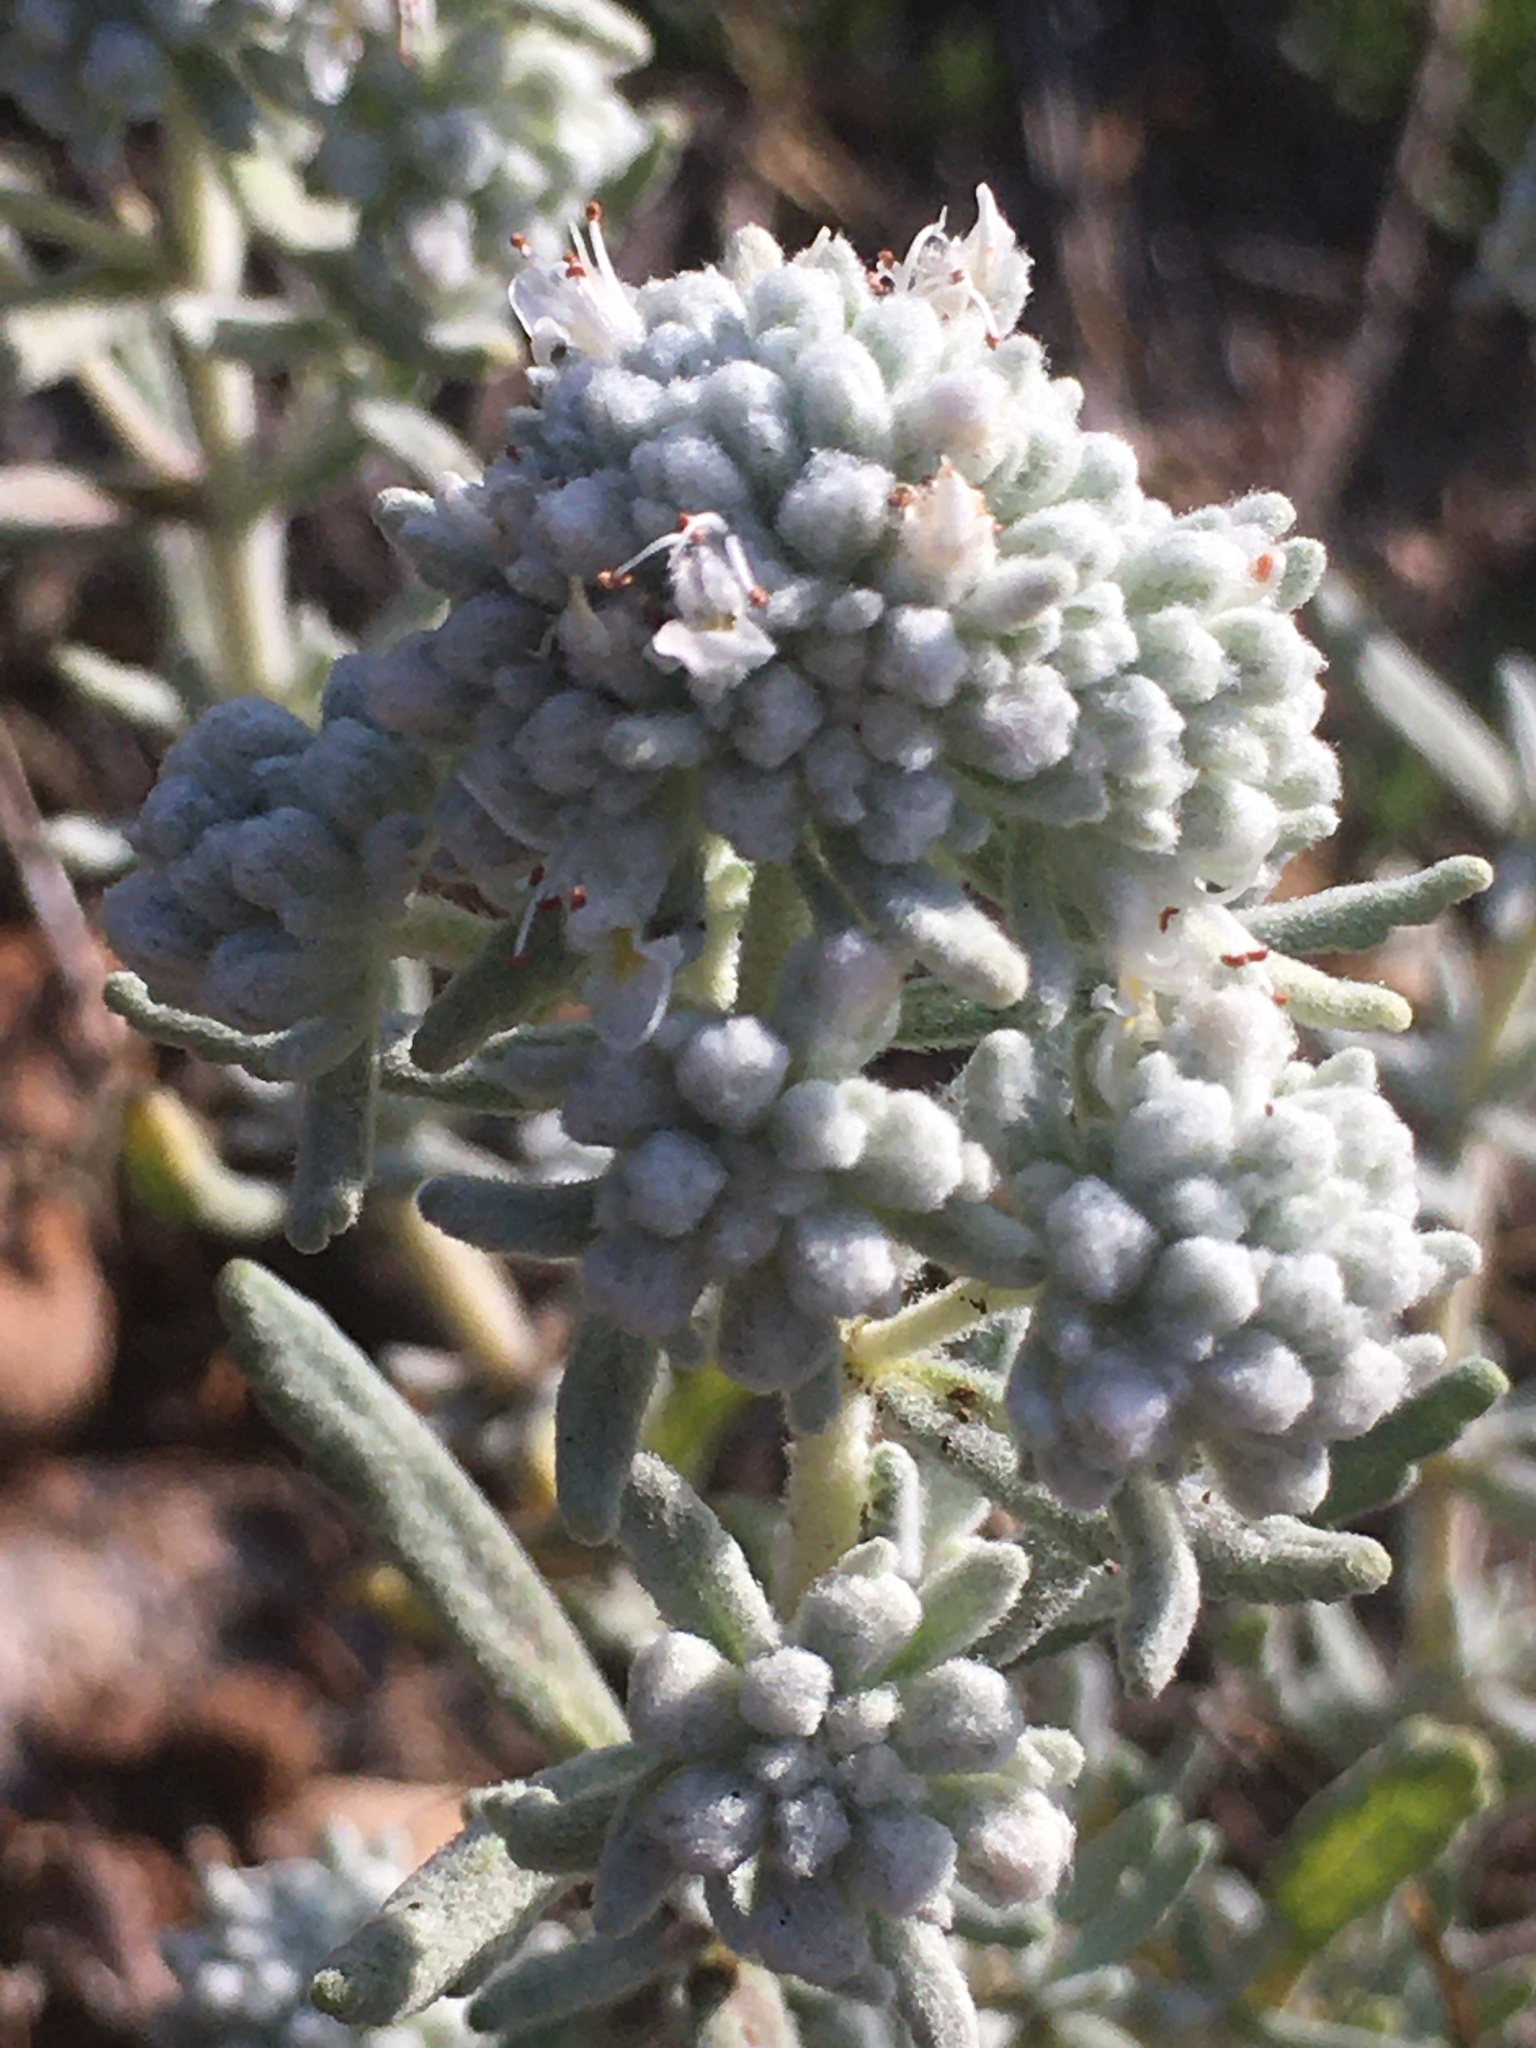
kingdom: Plantae
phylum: Tracheophyta
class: Magnoliopsida
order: Lamiales
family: Lamiaceae
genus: Teucrium
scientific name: Teucrium polium
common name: Poley
